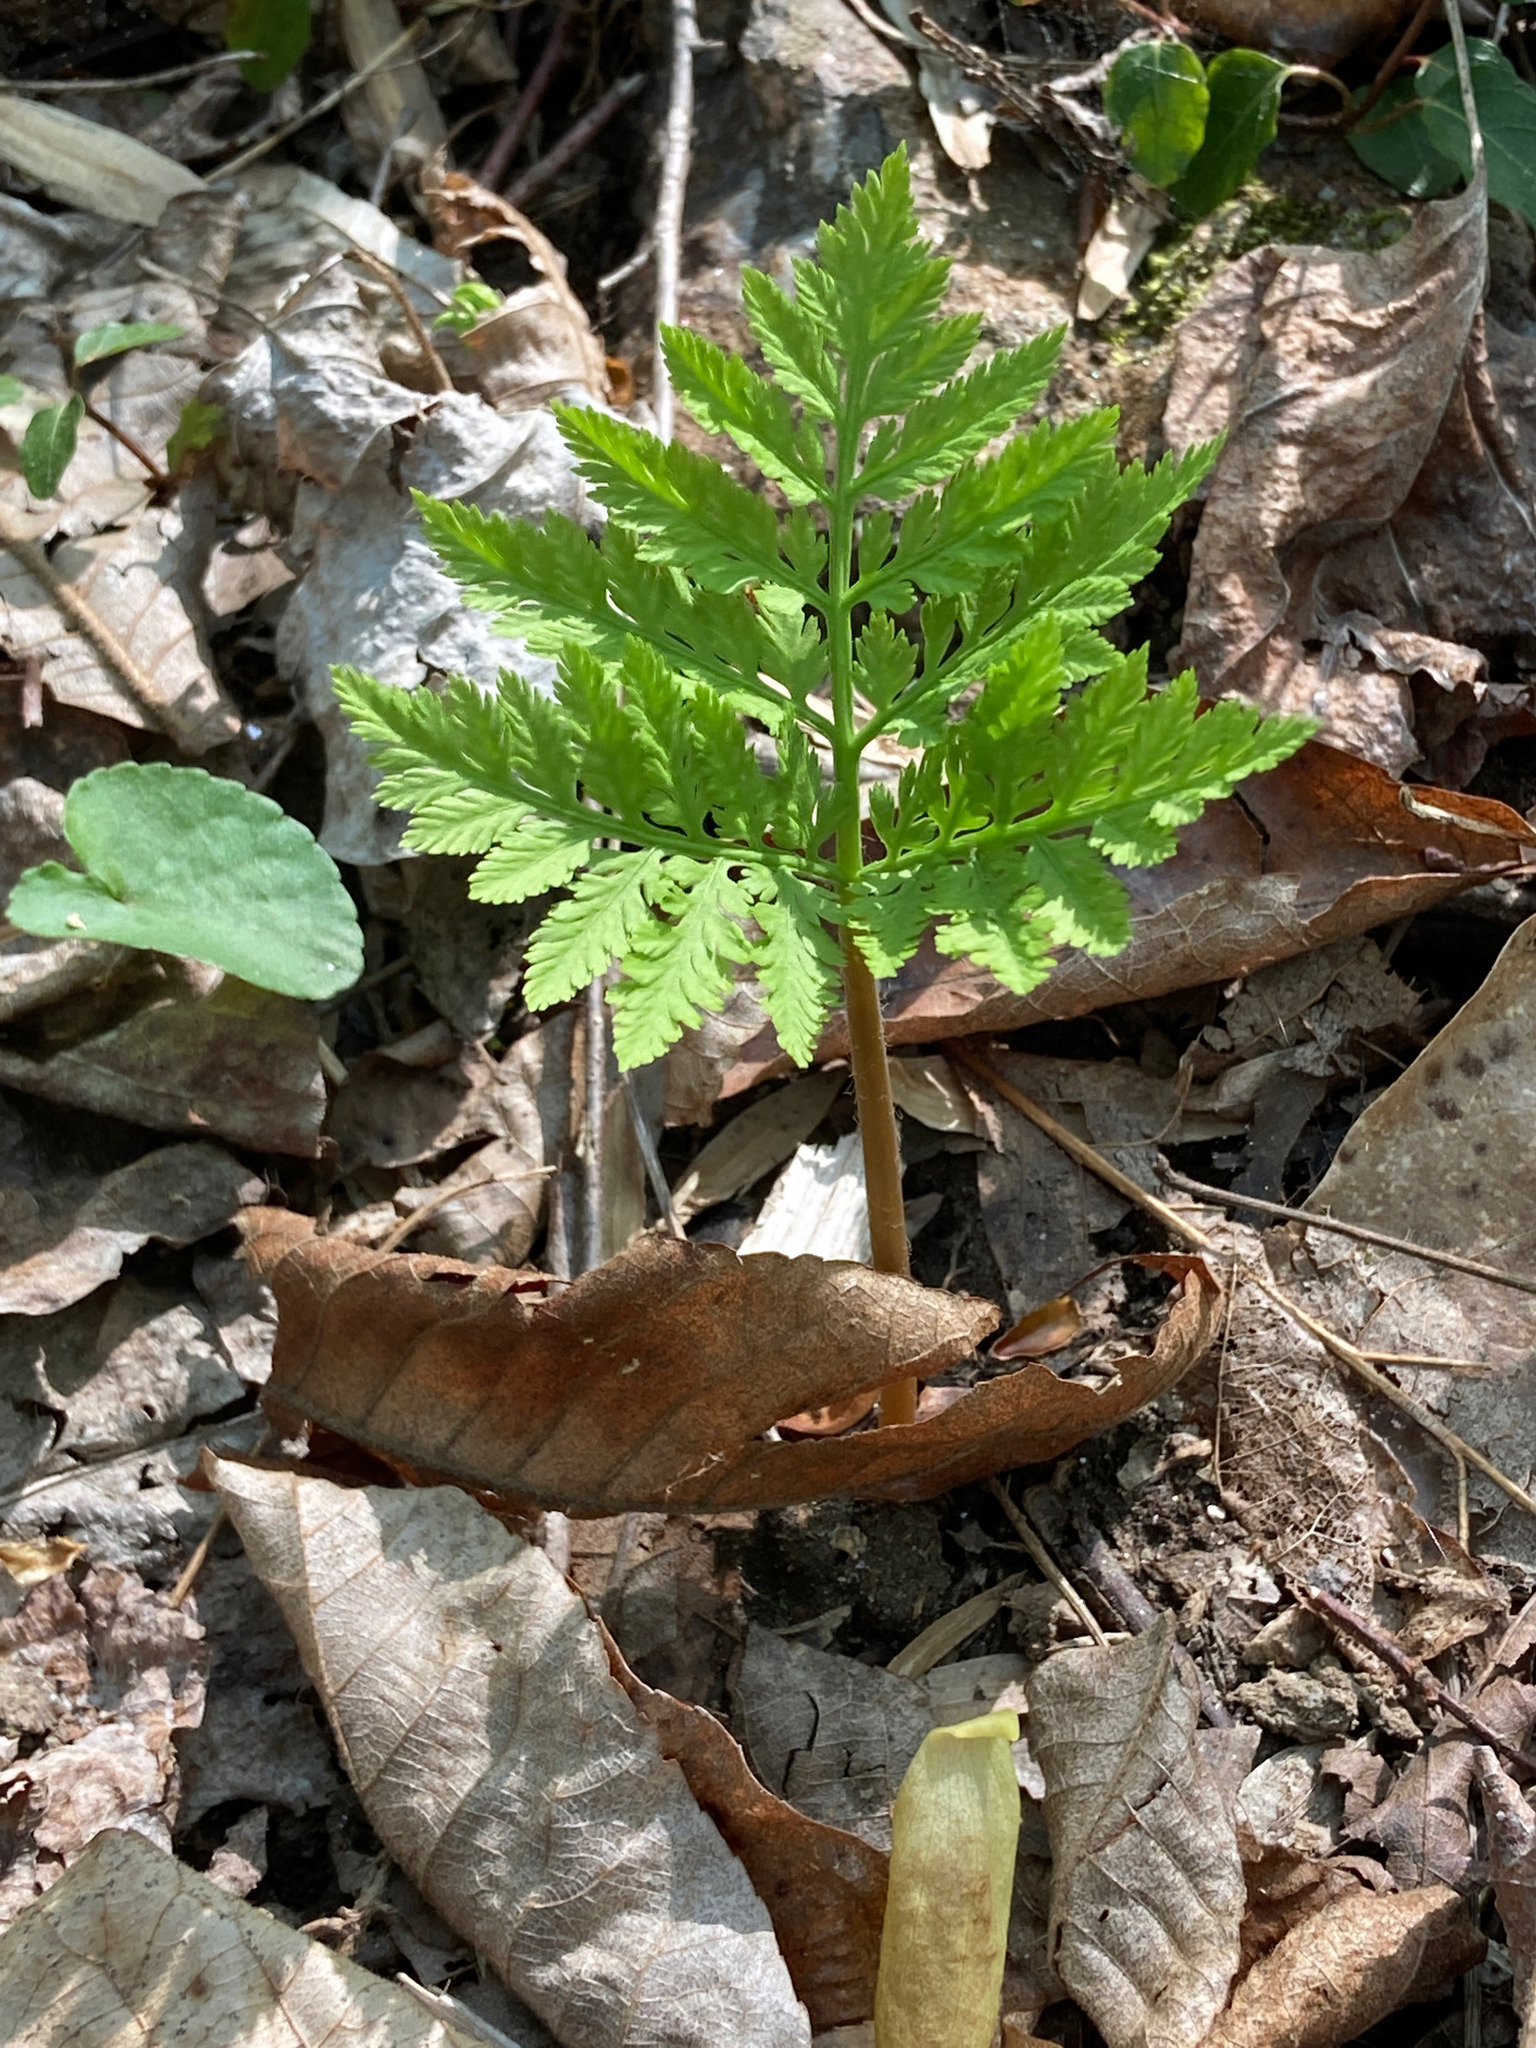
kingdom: Plantae
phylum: Tracheophyta
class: Polypodiopsida
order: Ophioglossales
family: Ophioglossaceae
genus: Botrypus
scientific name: Botrypus virginianus
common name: Common grapefern
